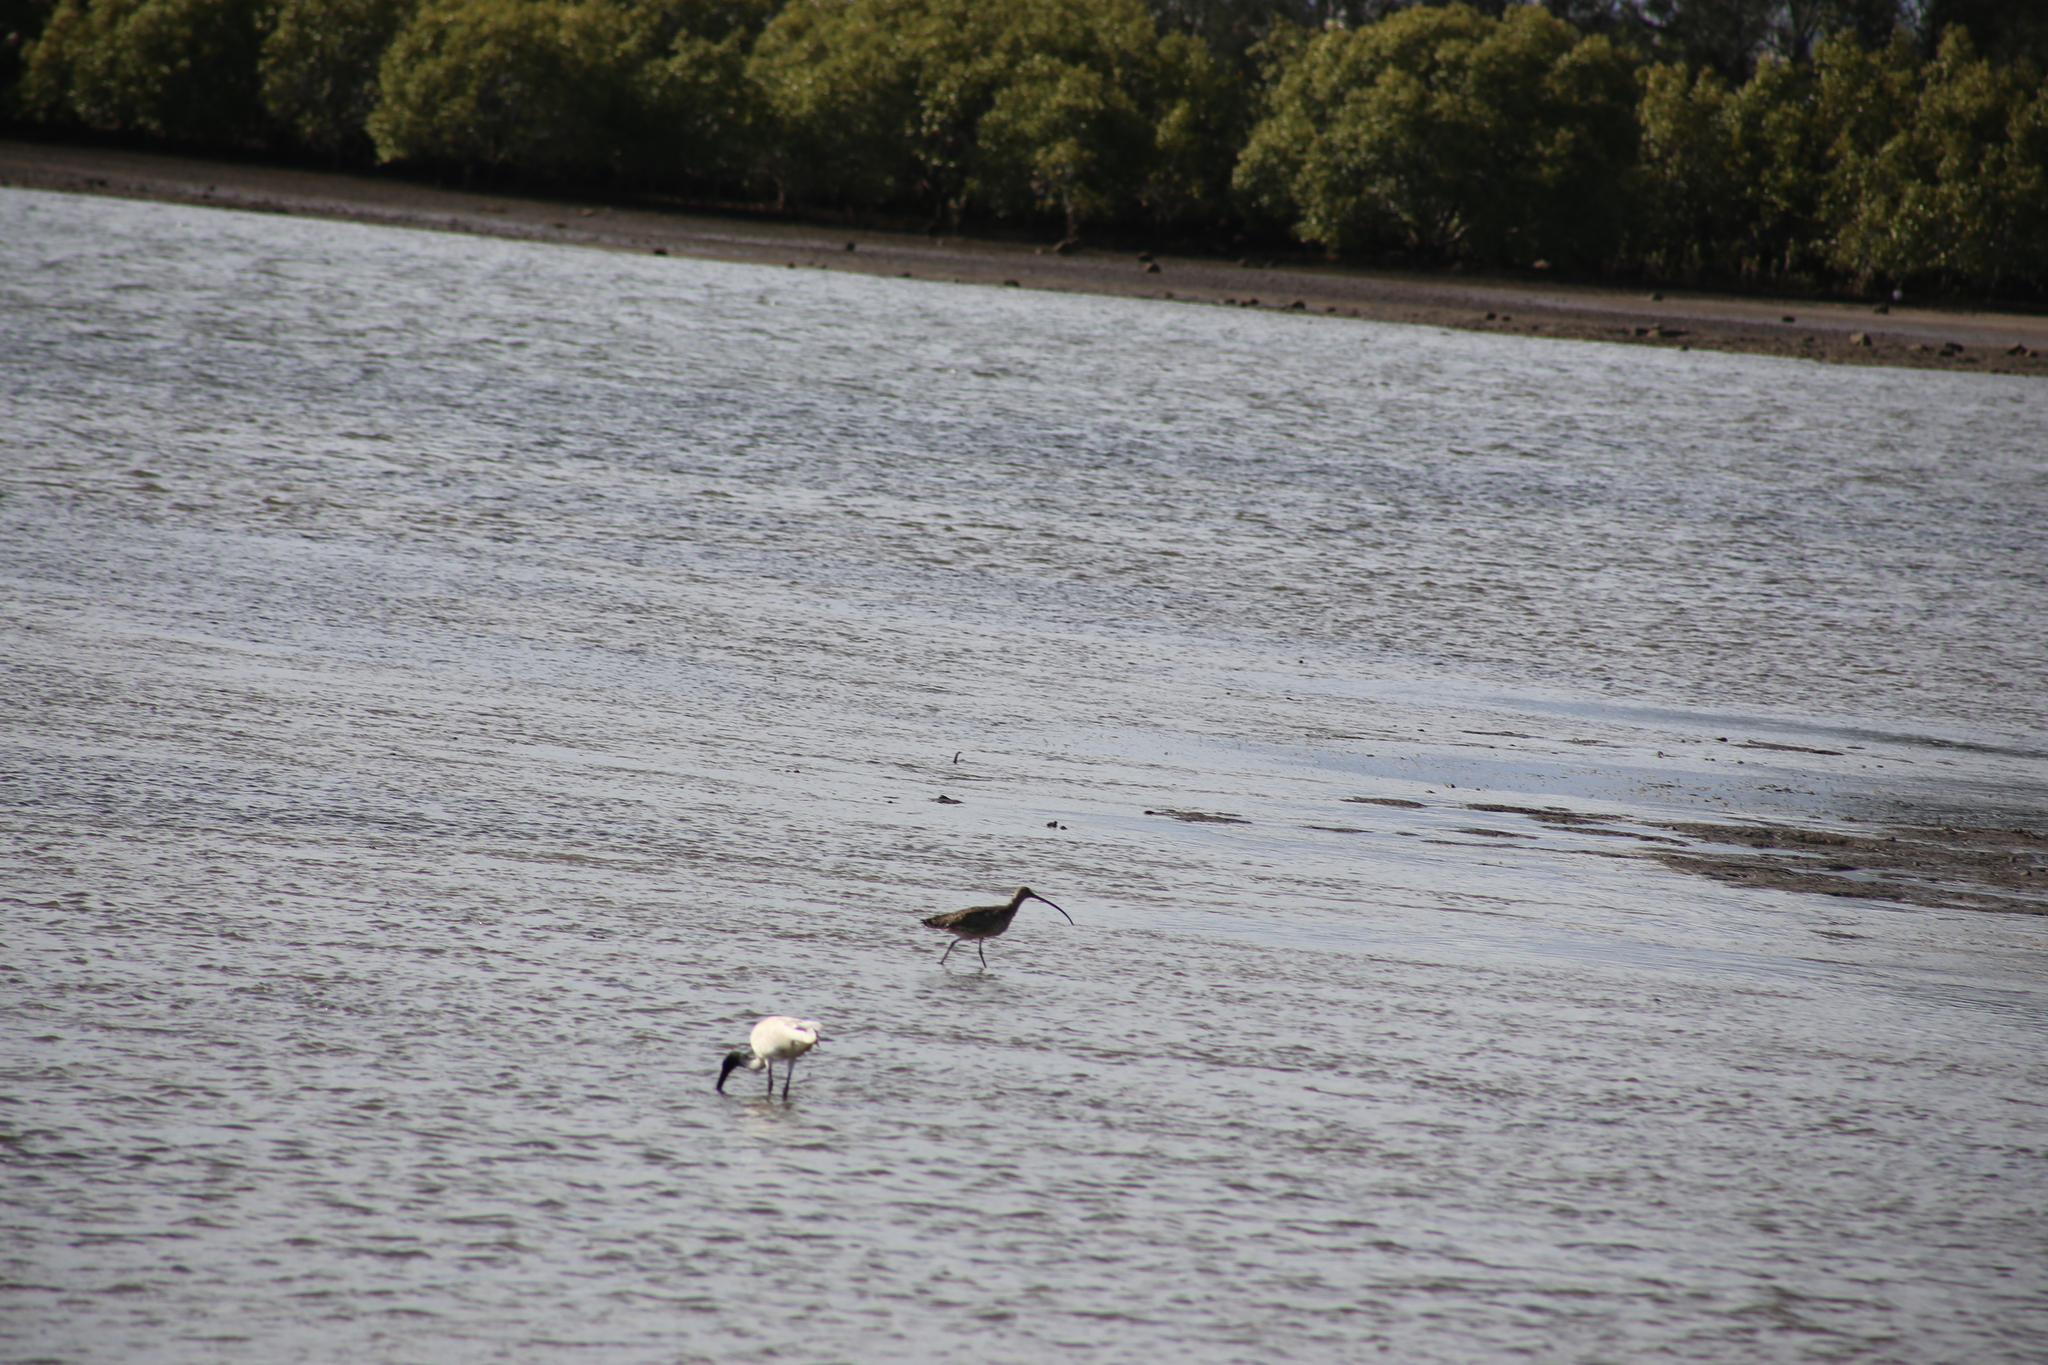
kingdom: Animalia
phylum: Chordata
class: Aves
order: Pelecaniformes
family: Threskiornithidae
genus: Threskiornis
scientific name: Threskiornis molucca
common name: Australian white ibis
